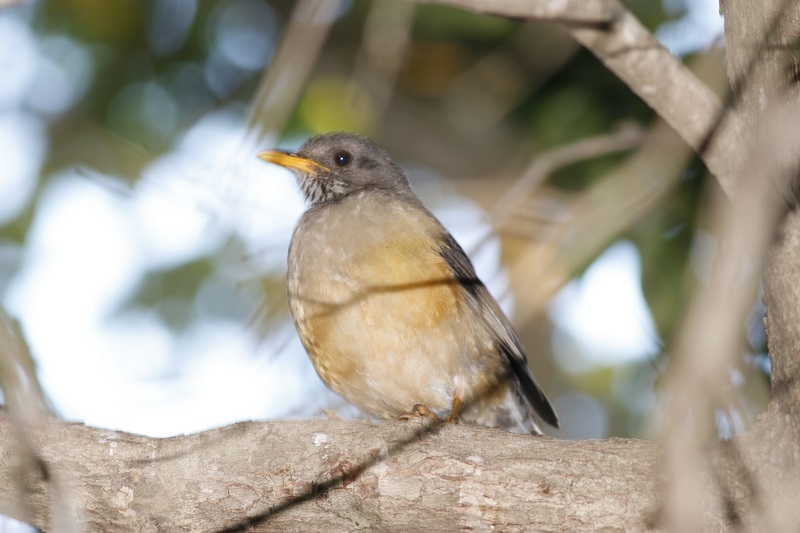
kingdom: Animalia
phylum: Chordata
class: Aves
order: Passeriformes
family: Turdidae
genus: Turdus
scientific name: Turdus olivaceus
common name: Olive thrush
